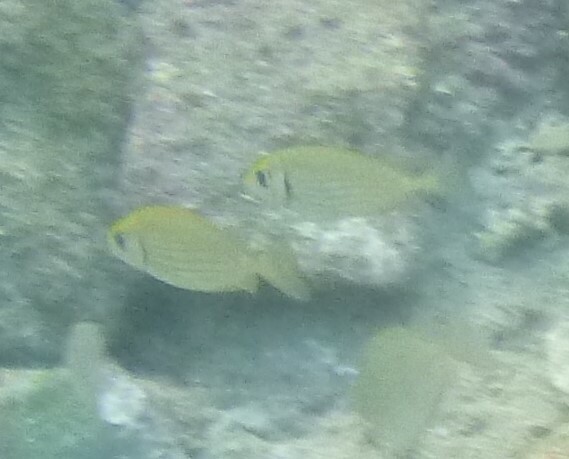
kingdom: Animalia
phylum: Chordata
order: Perciformes
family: Siganidae
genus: Siganus
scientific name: Siganus rivulatus
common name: Marbled spinefoot
